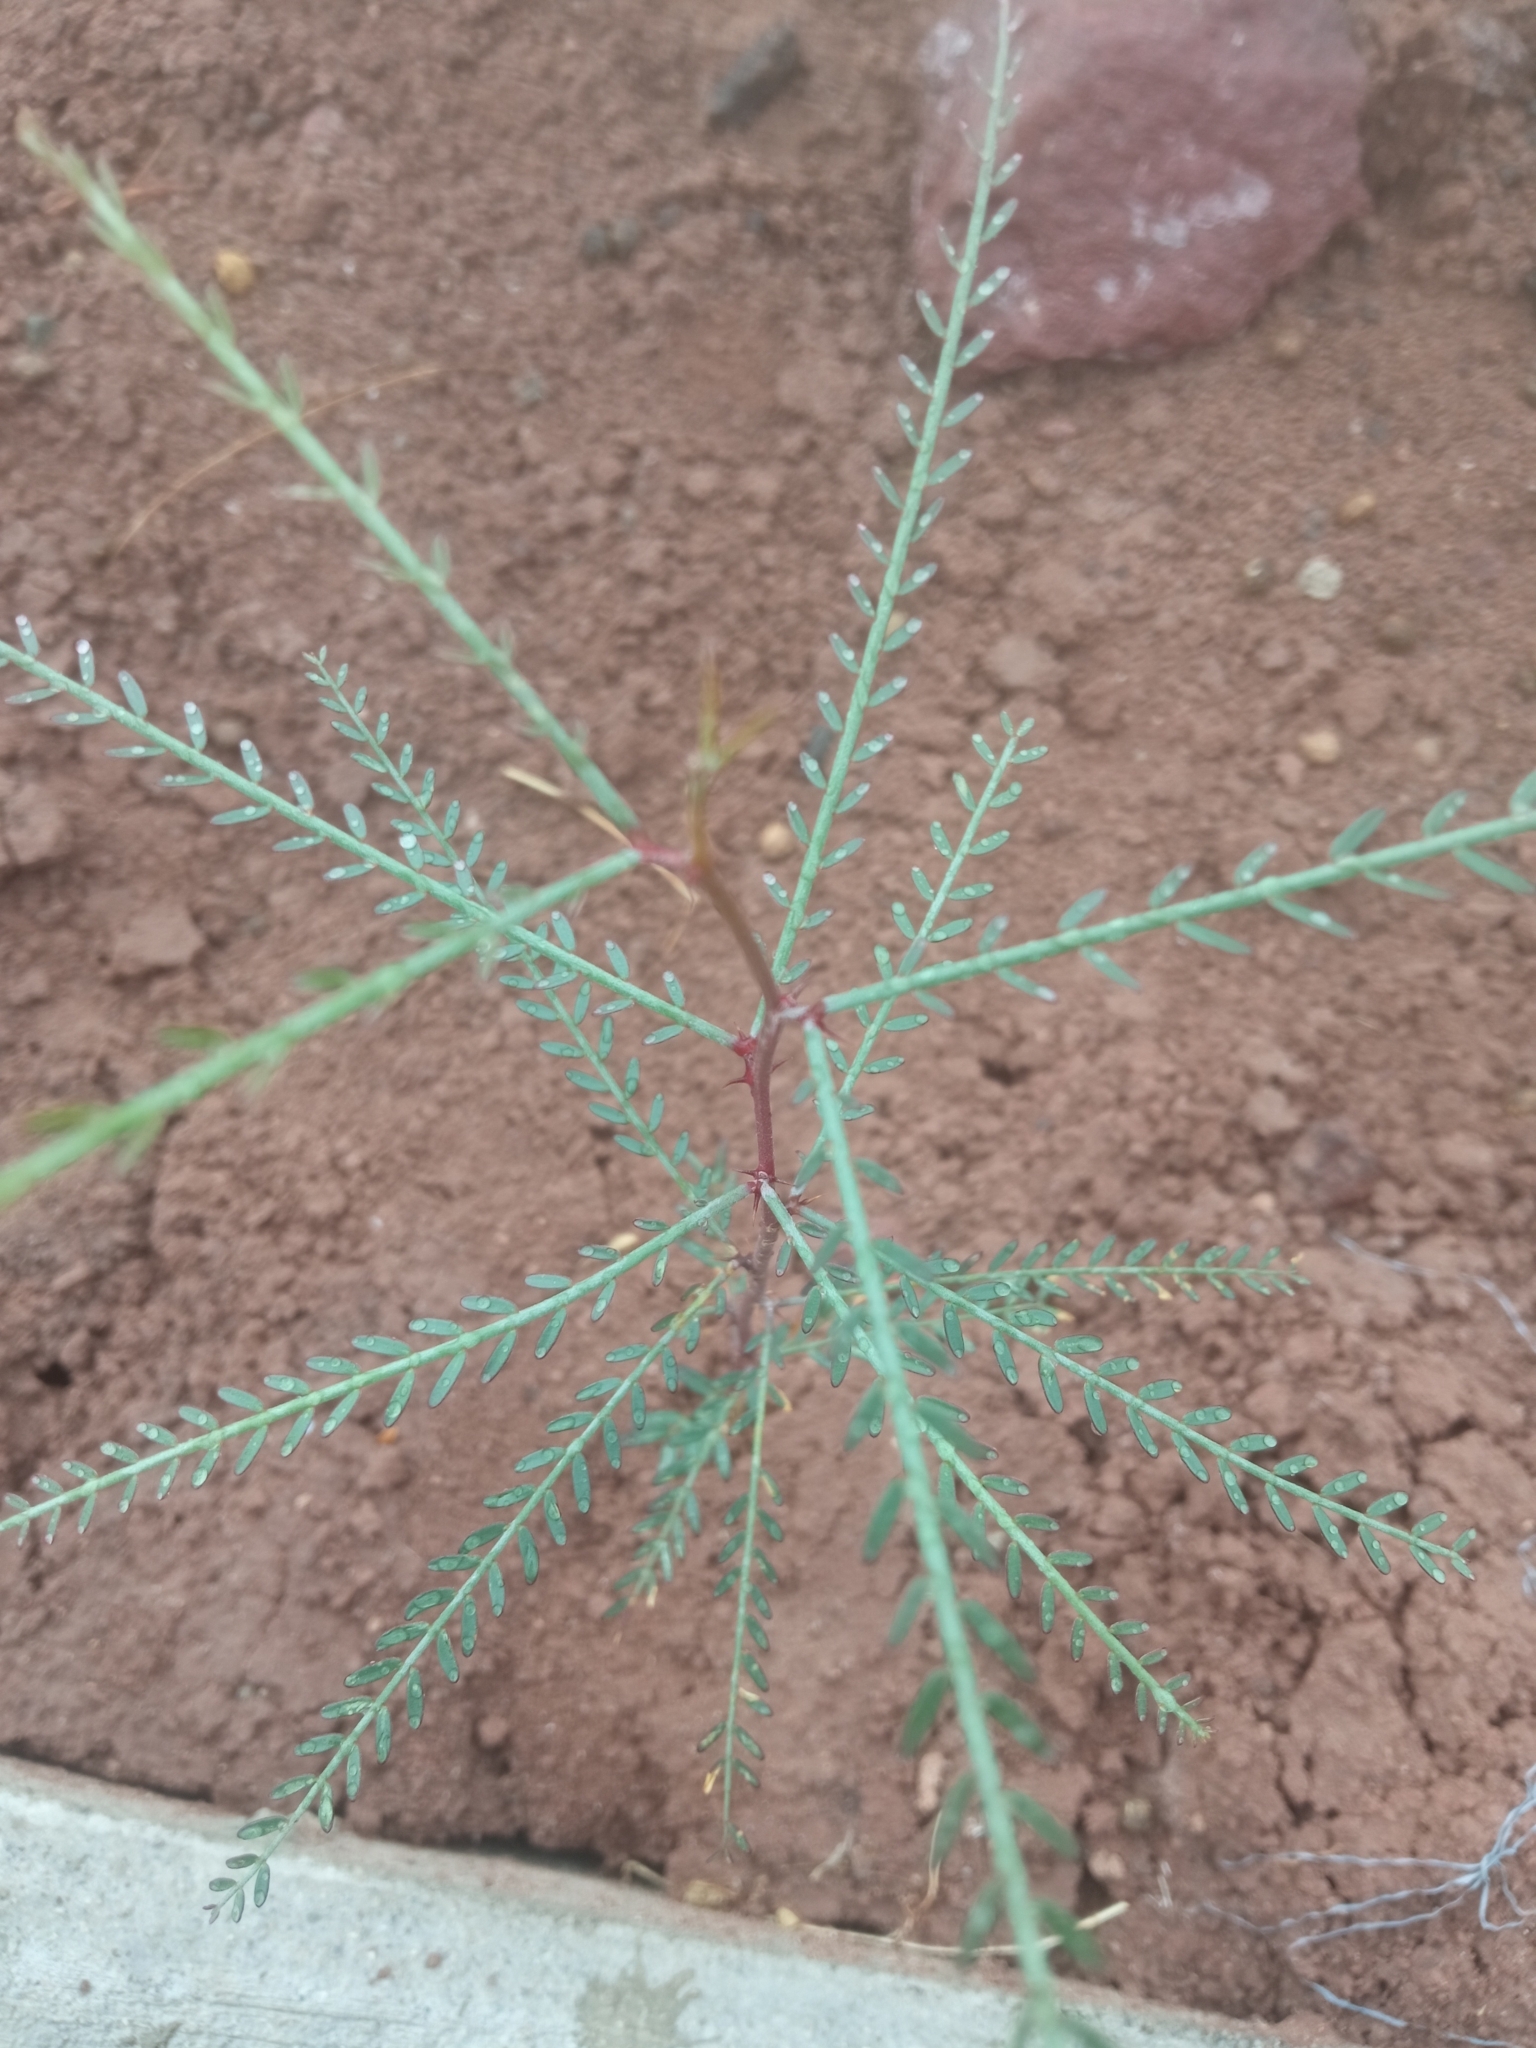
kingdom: Plantae
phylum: Tracheophyta
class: Magnoliopsida
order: Fabales
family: Fabaceae
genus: Parkinsonia
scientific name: Parkinsonia aculeata
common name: Jerusalem thorn
